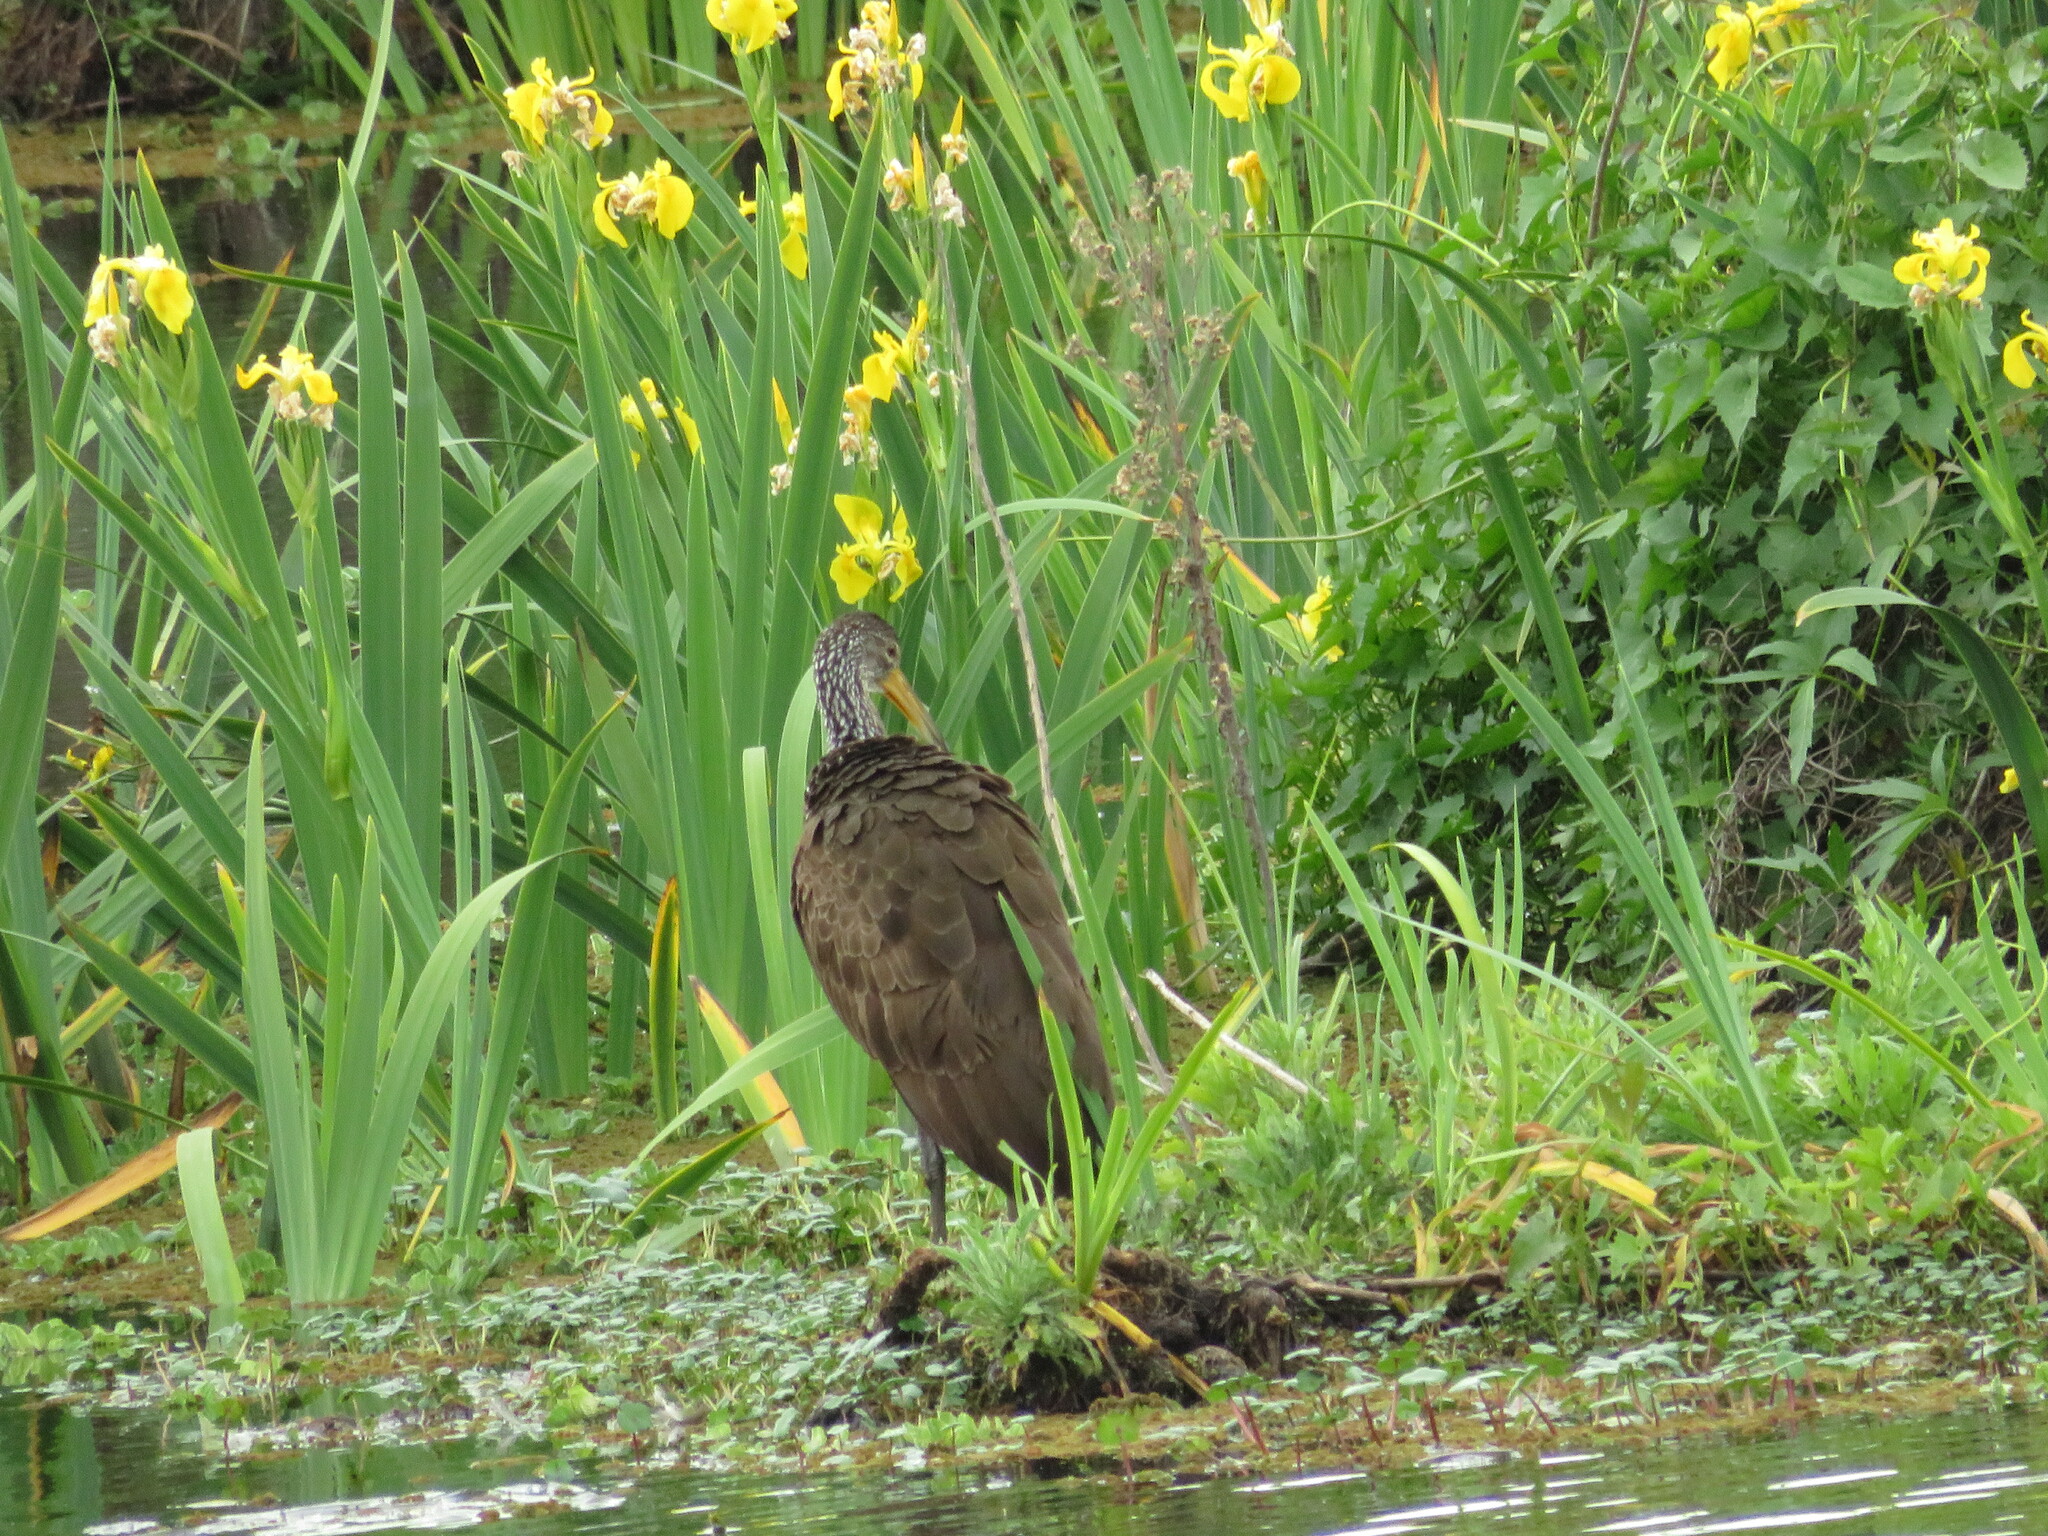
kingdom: Animalia
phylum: Chordata
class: Aves
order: Gruiformes
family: Aramidae
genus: Aramus
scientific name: Aramus guarauna
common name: Limpkin
